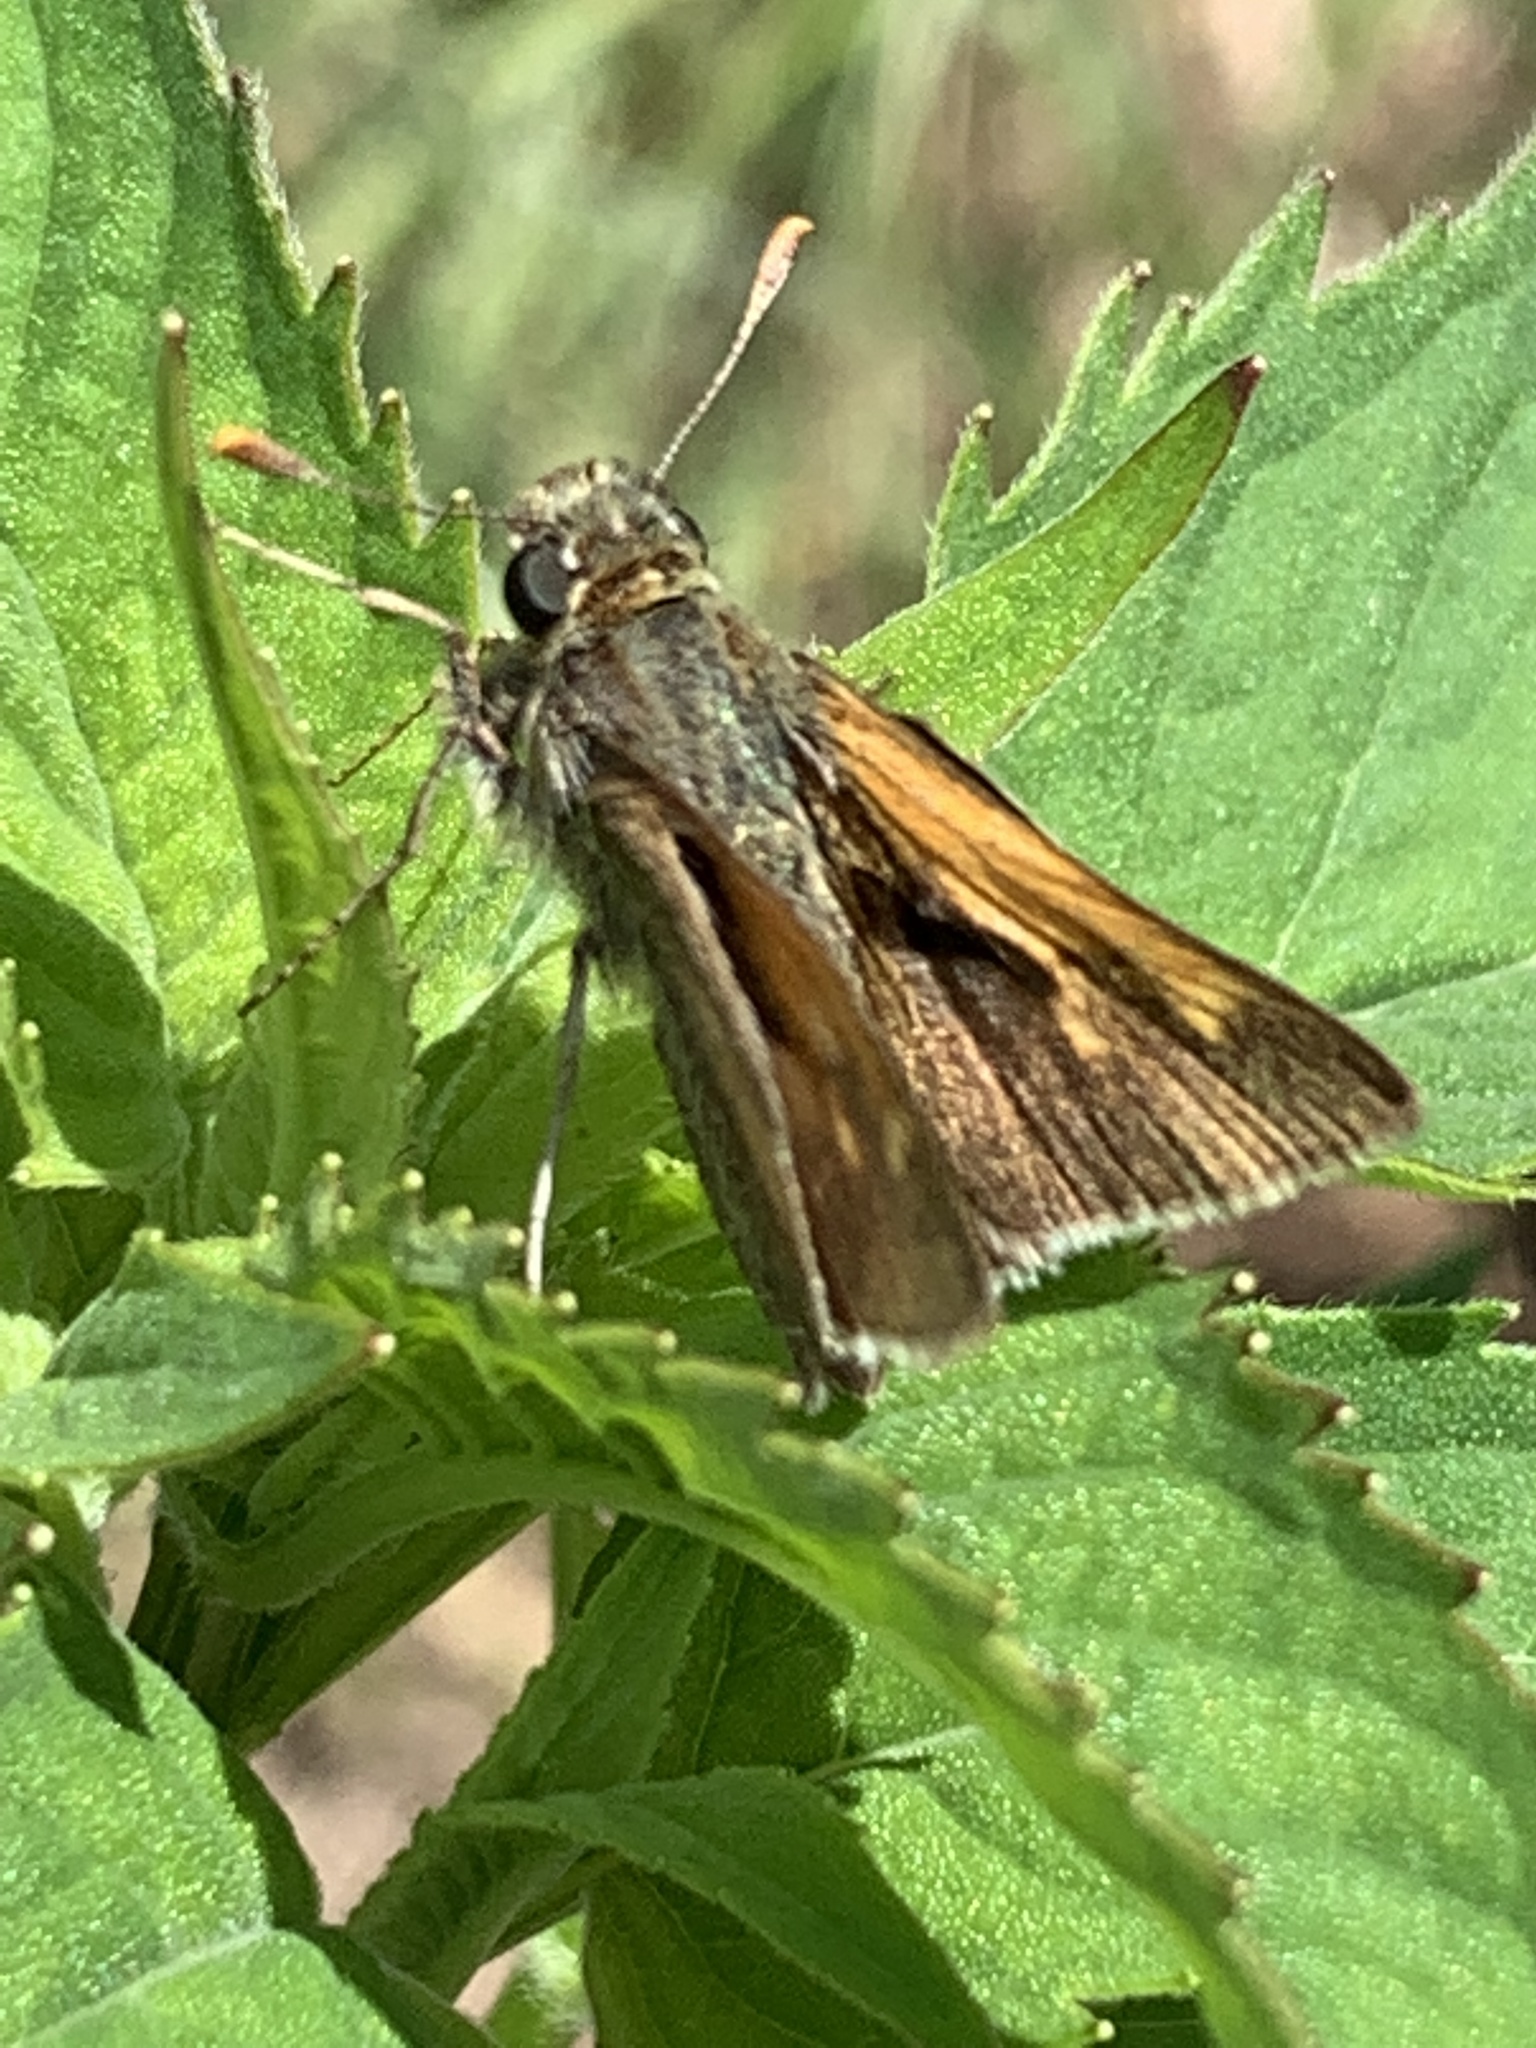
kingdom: Animalia
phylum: Arthropoda
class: Insecta
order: Lepidoptera
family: Hesperiidae
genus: Polites
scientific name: Polites themistocles
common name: Tawny-edged skipper
